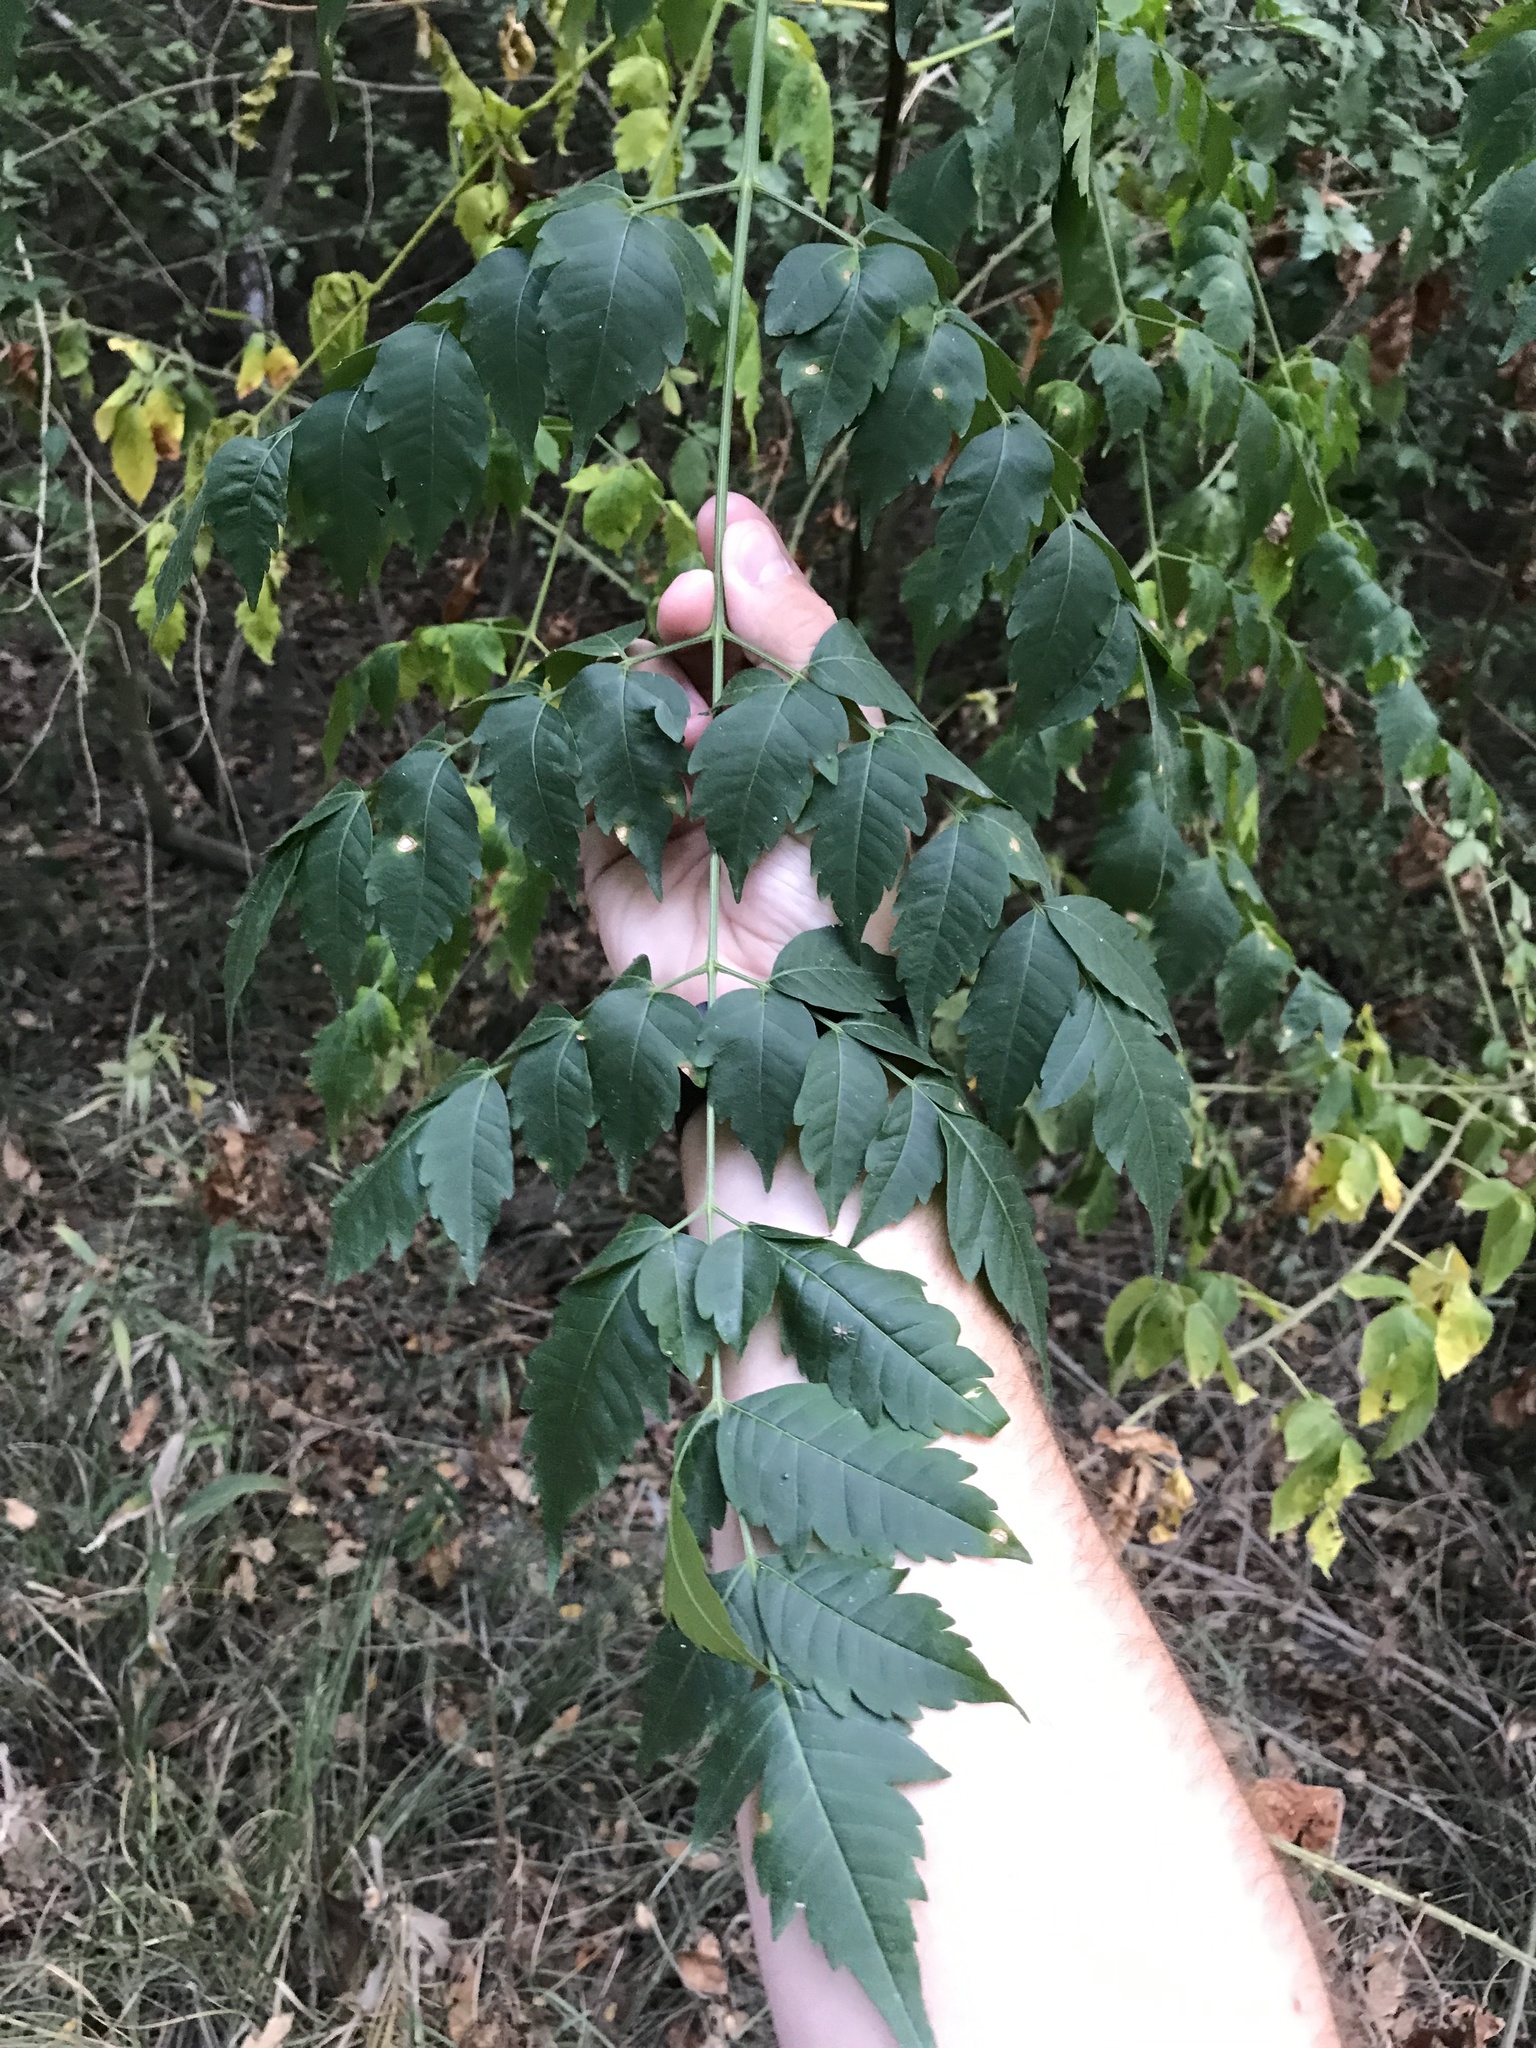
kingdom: Plantae
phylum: Tracheophyta
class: Magnoliopsida
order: Sapindales
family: Meliaceae
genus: Melia
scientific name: Melia azedarach
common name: Chinaberrytree
